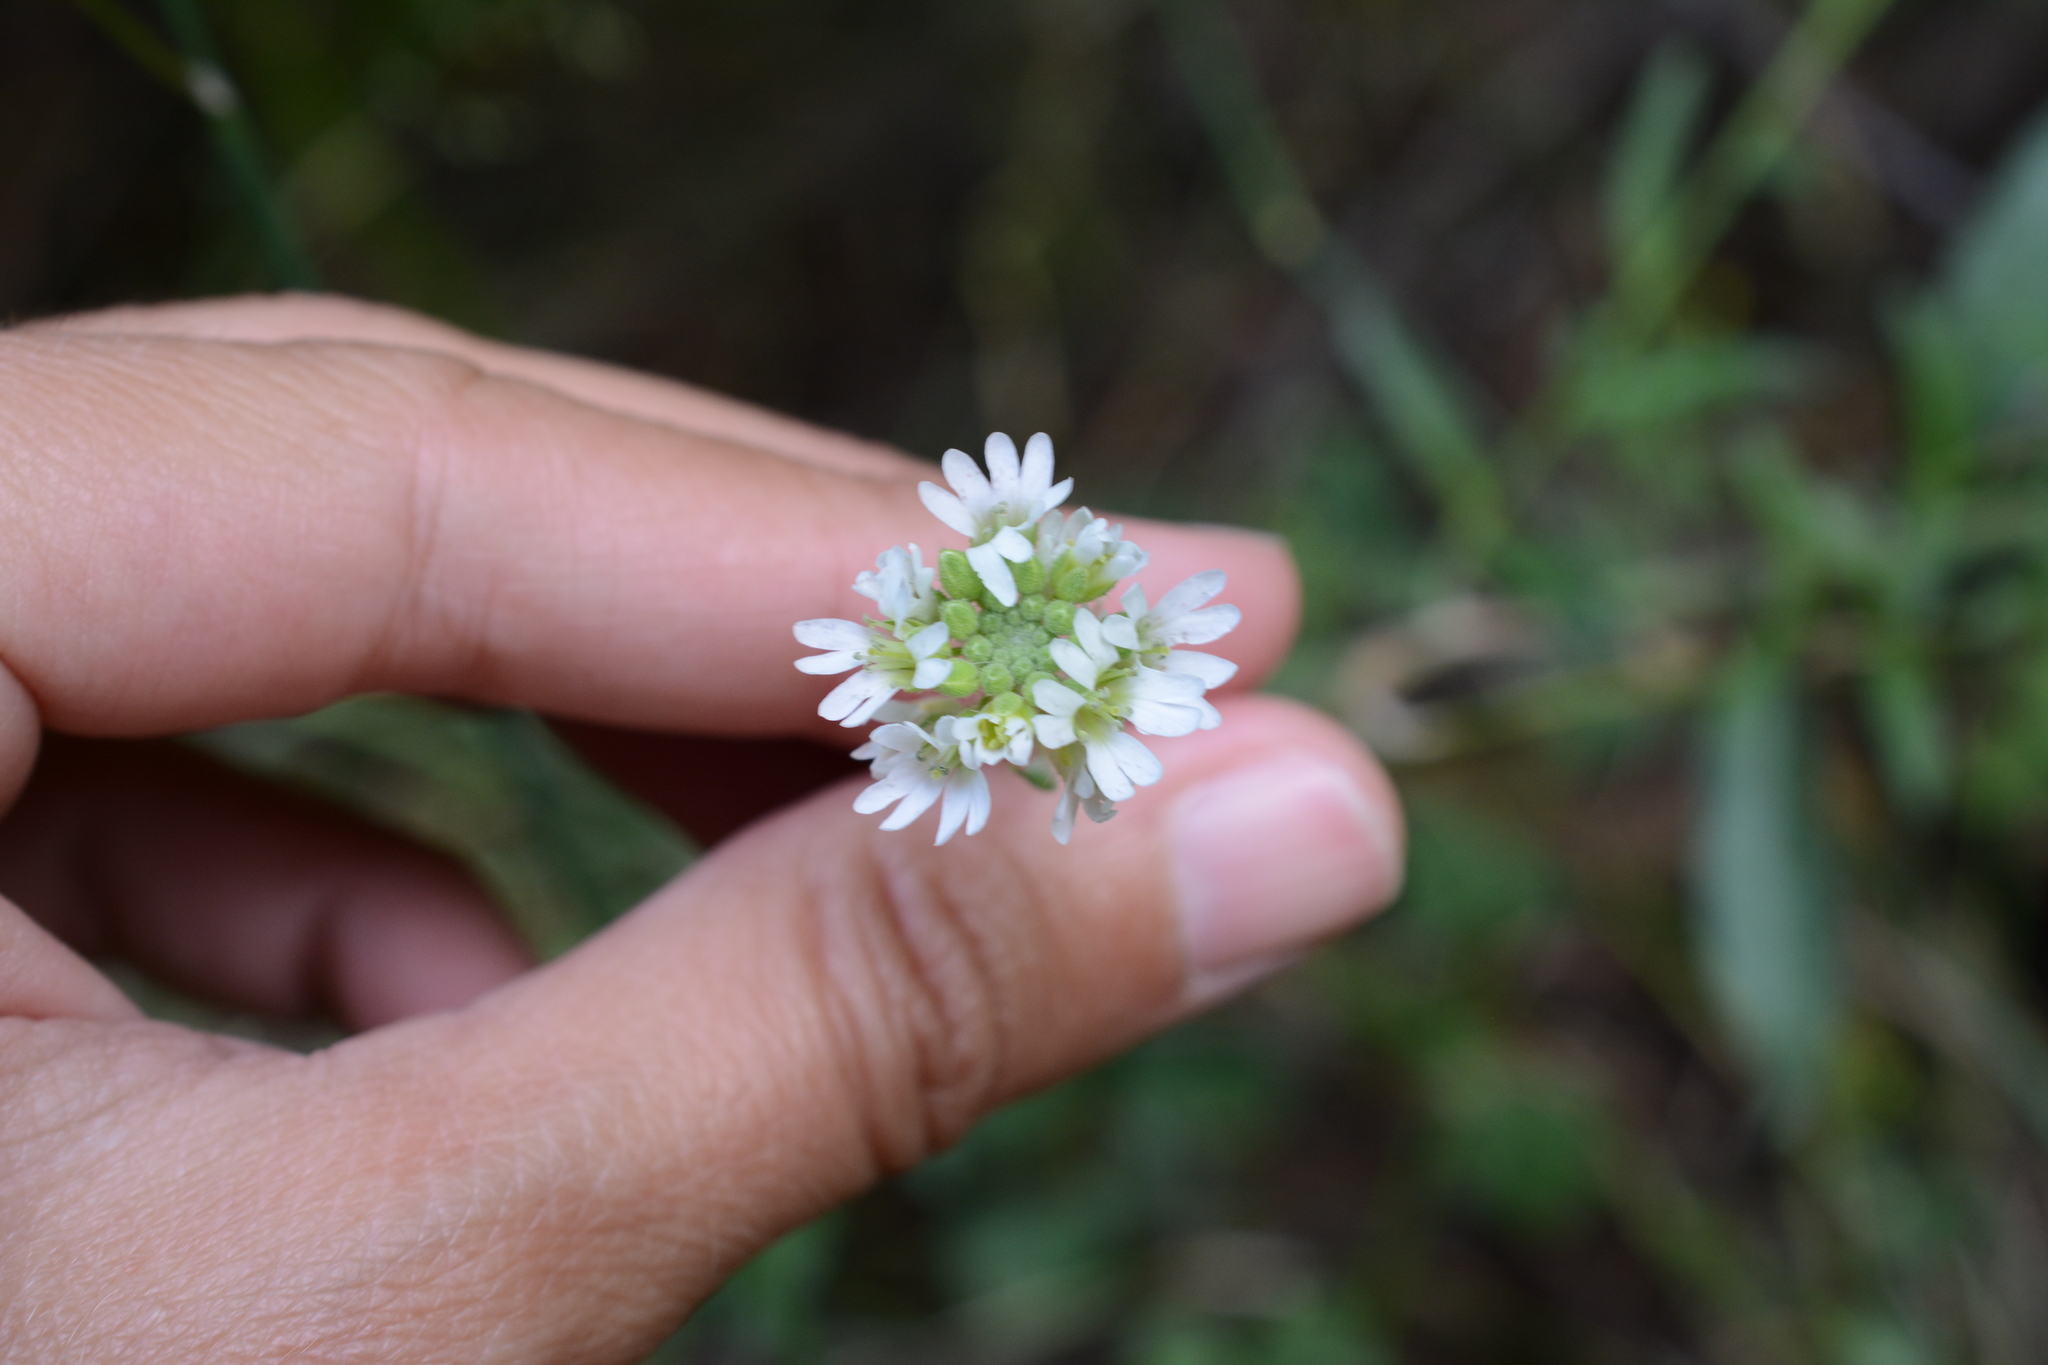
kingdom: Plantae
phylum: Tracheophyta
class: Magnoliopsida
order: Brassicales
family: Brassicaceae
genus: Berteroa
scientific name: Berteroa incana
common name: Hoary alison
